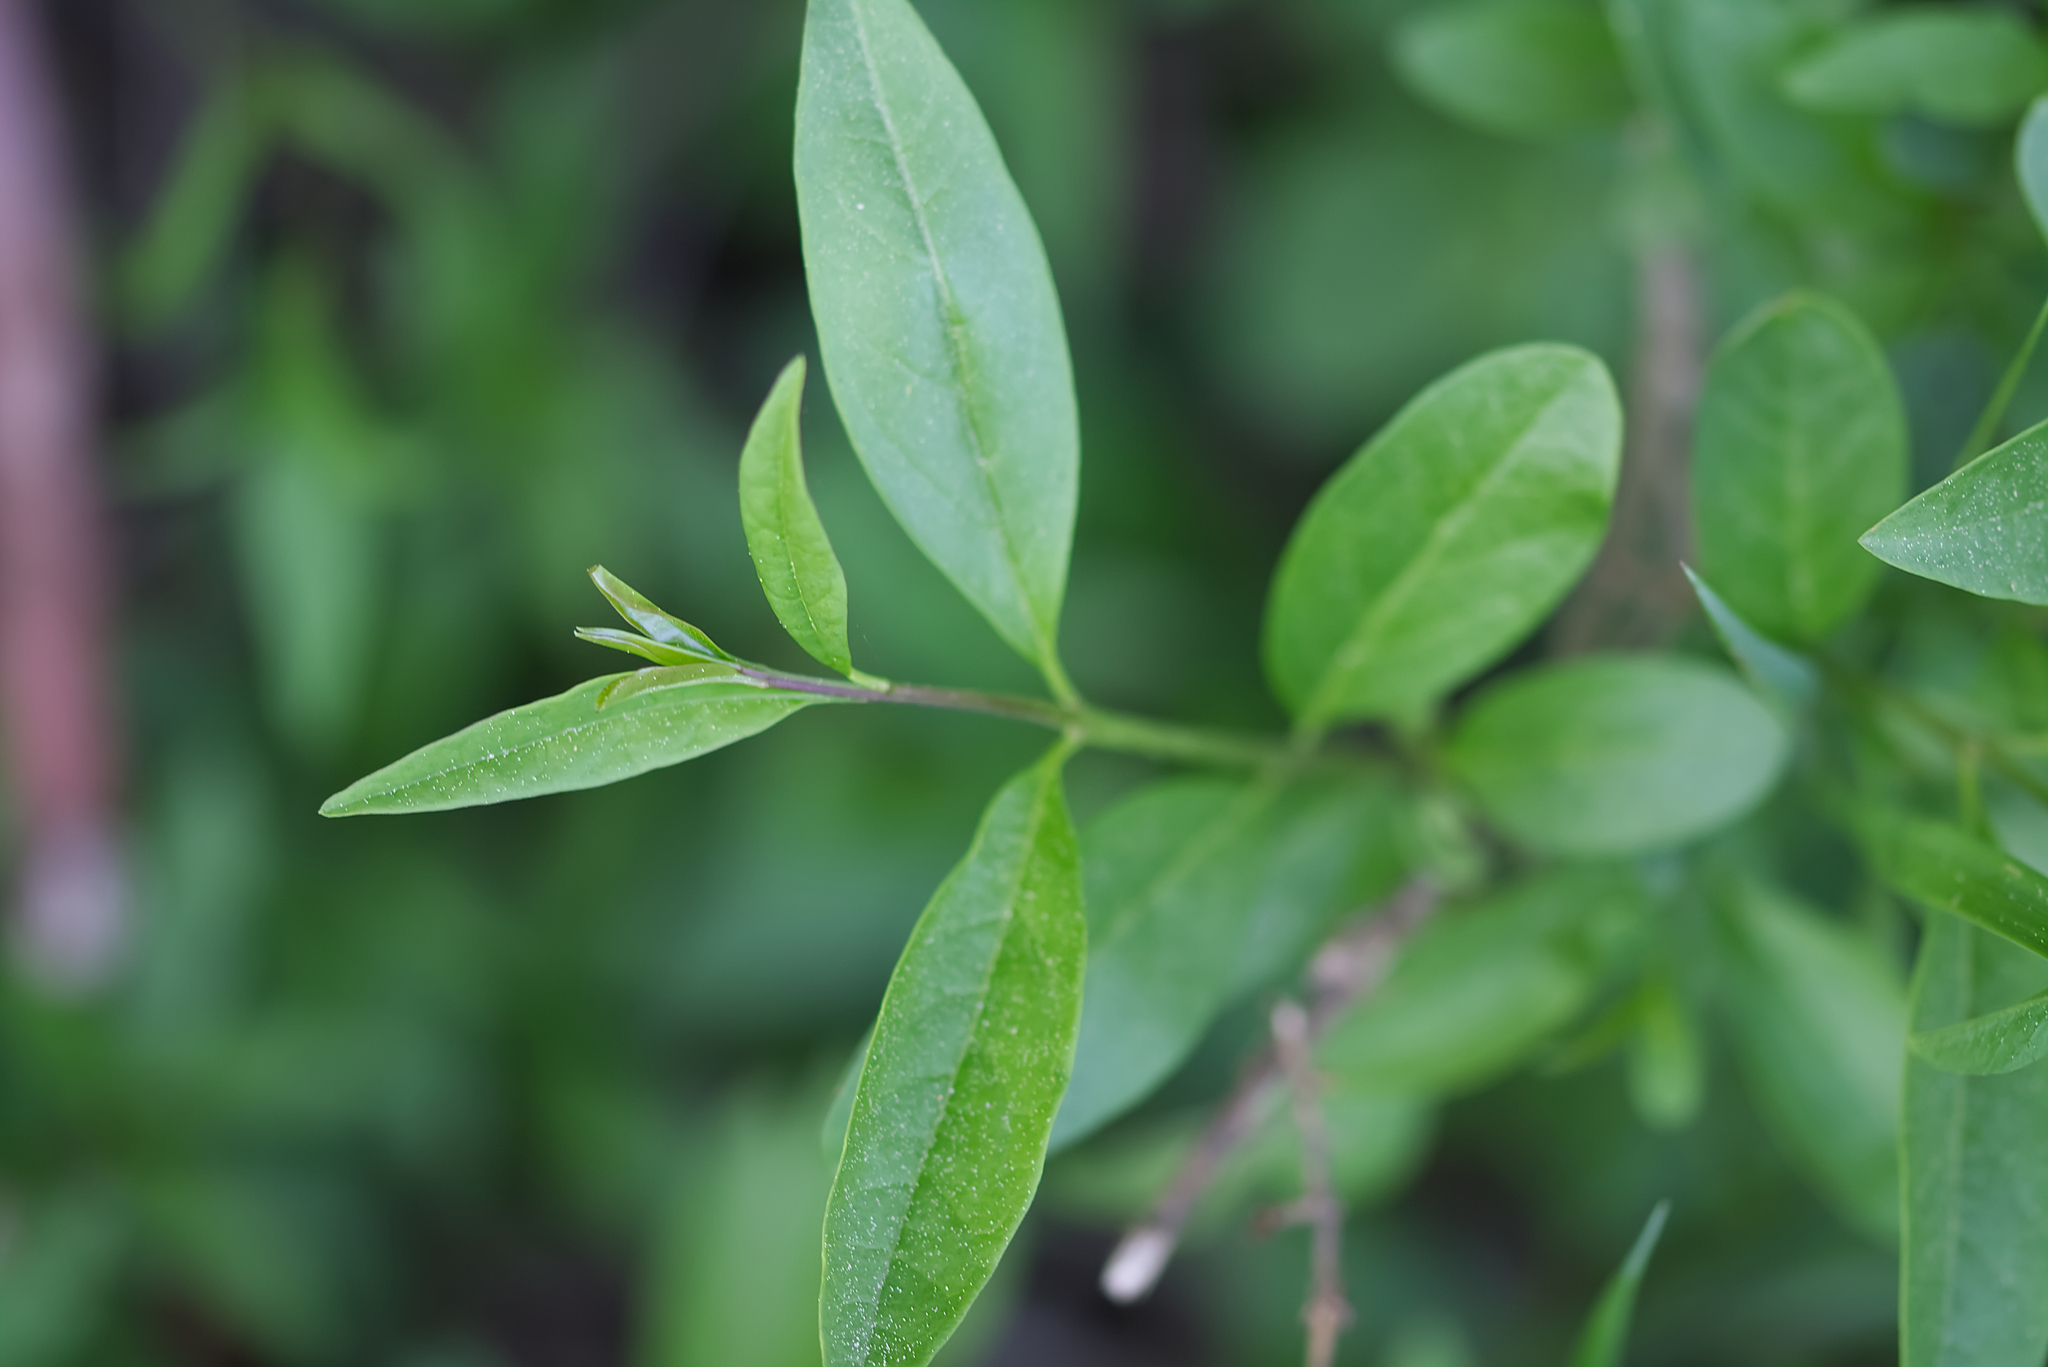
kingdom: Plantae
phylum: Tracheophyta
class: Magnoliopsida
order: Lamiales
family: Oleaceae
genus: Ligustrum
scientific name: Ligustrum vulgare
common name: Wild privet
